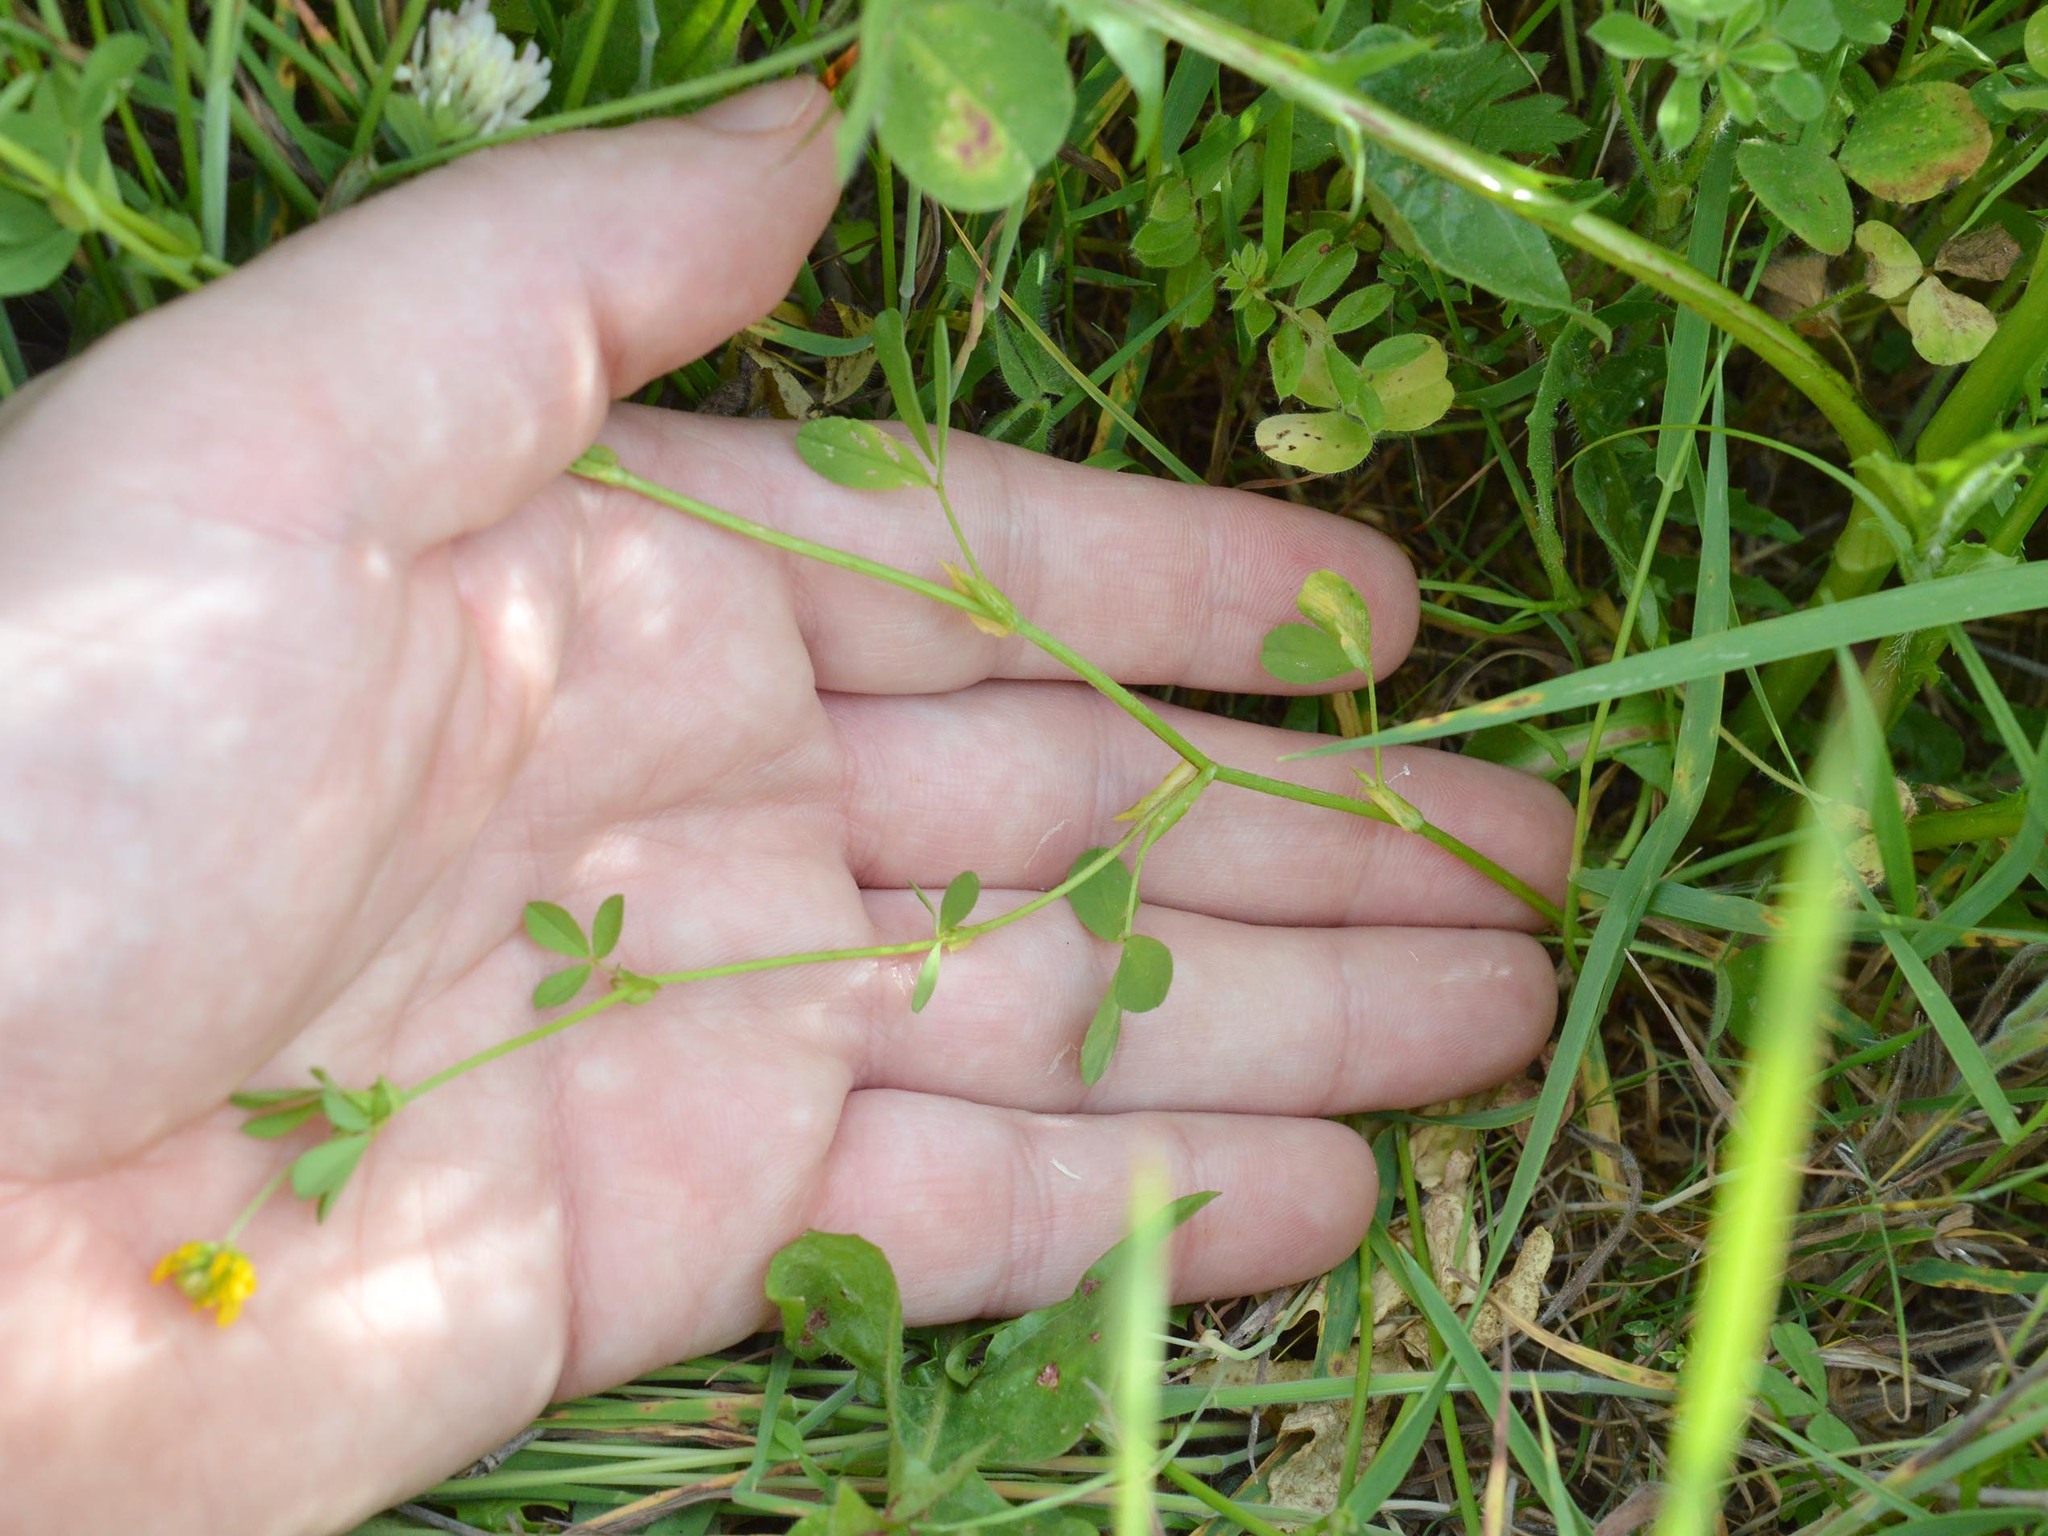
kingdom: Plantae
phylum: Tracheophyta
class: Magnoliopsida
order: Fabales
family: Fabaceae
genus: Trifolium
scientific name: Trifolium patens
